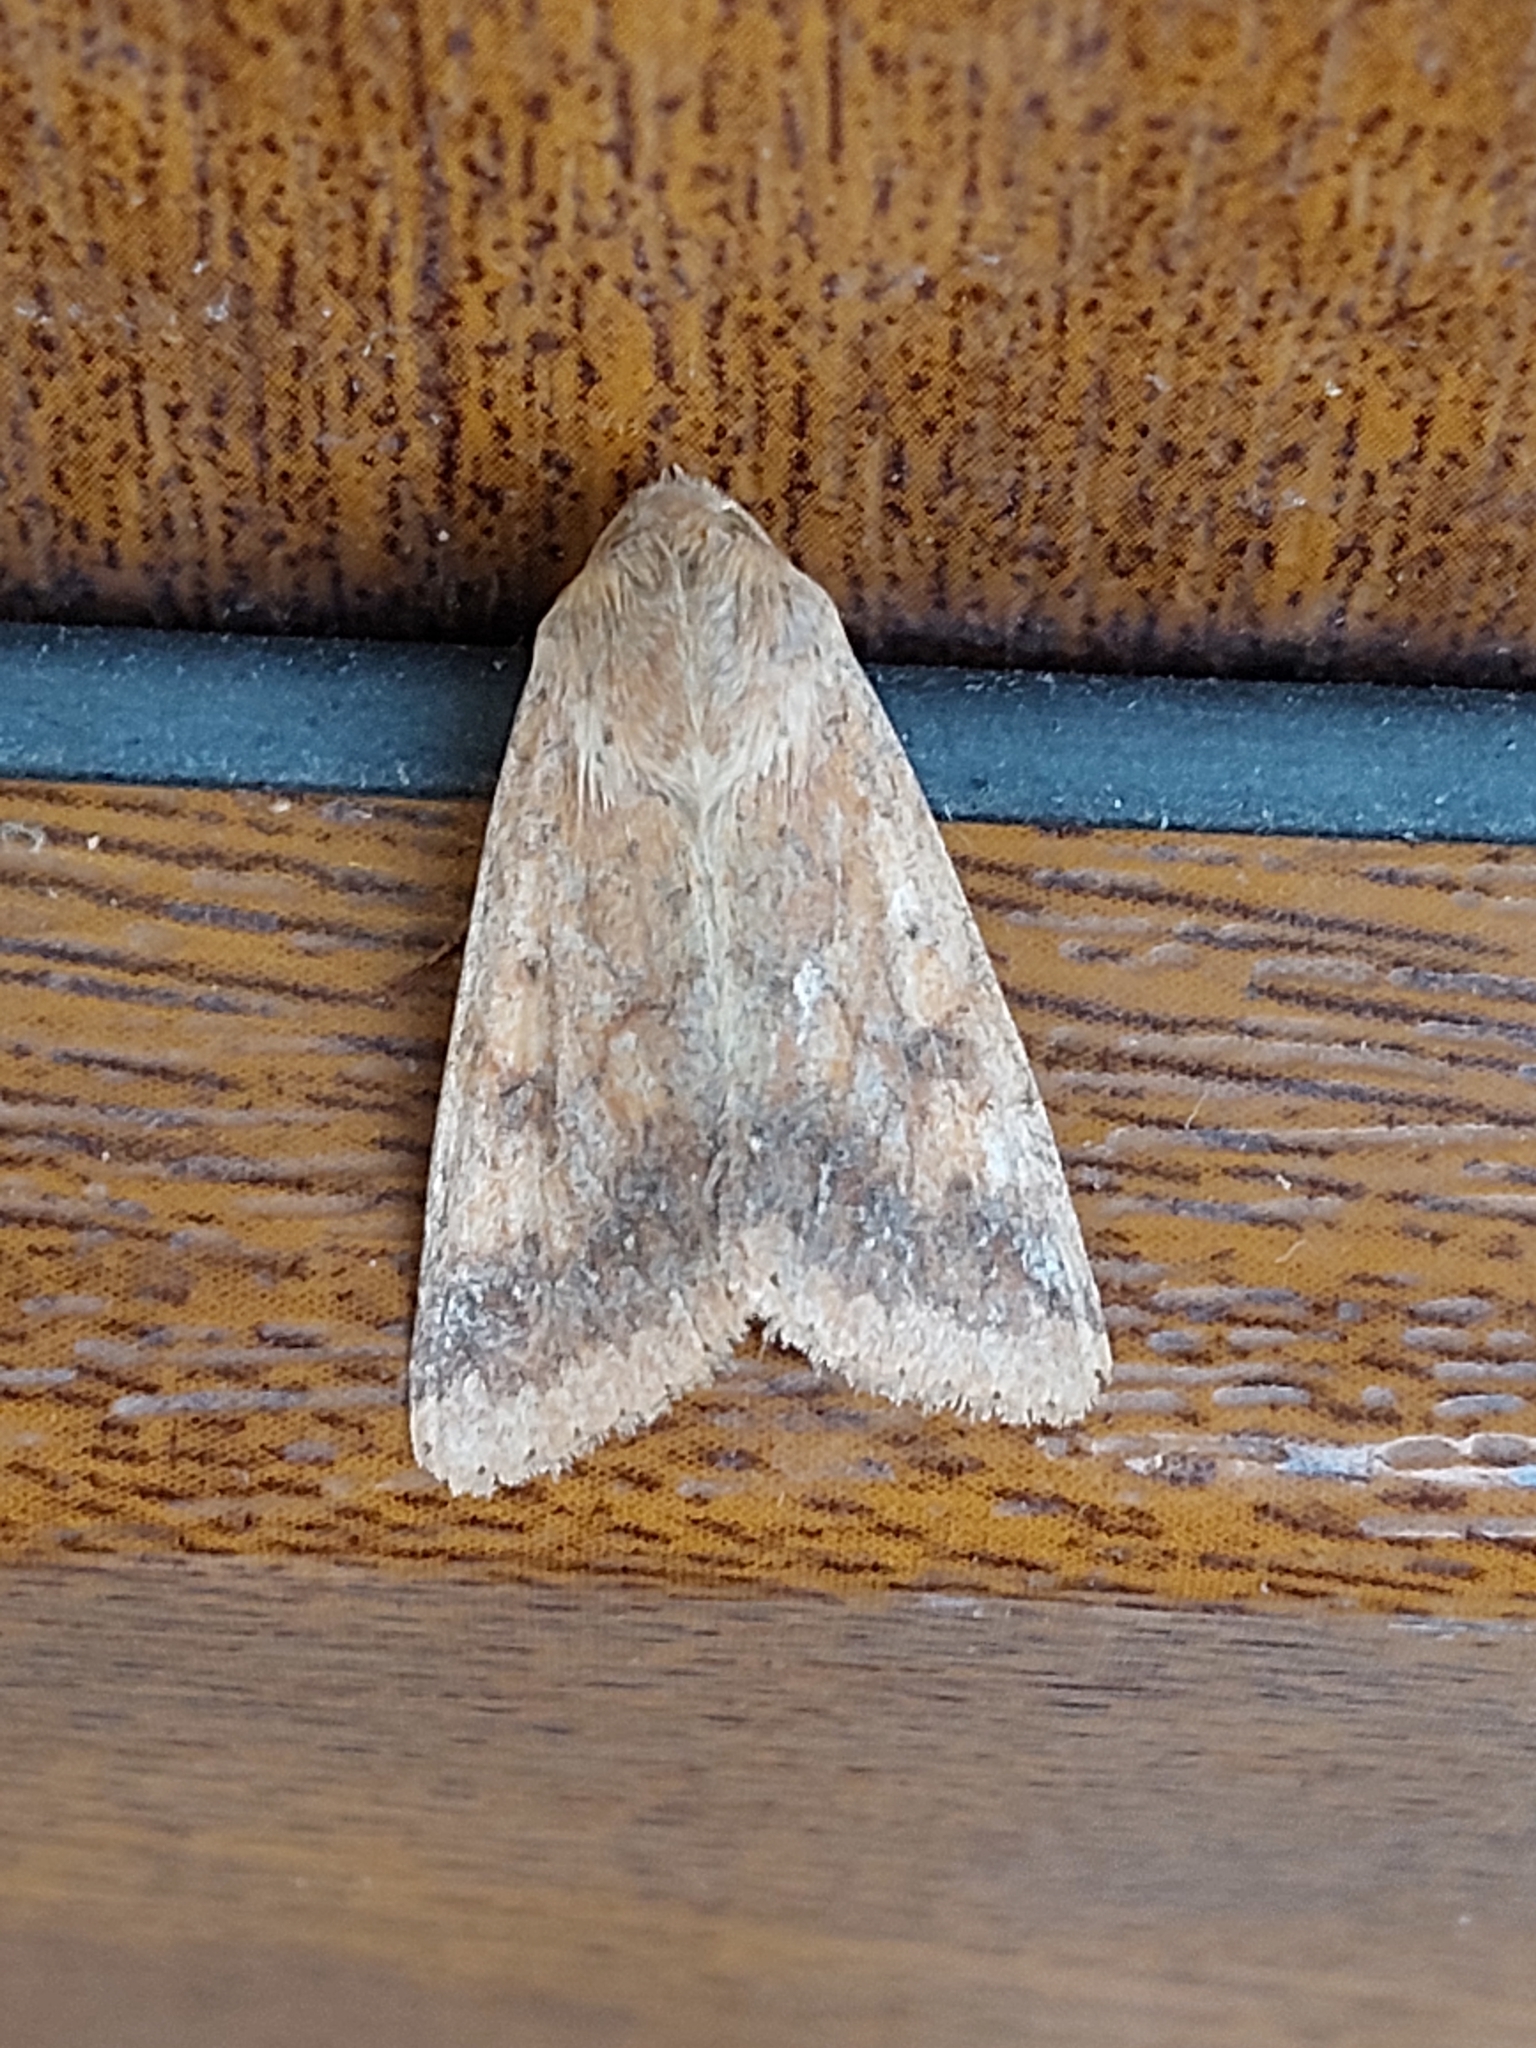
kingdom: Animalia
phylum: Arthropoda
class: Insecta
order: Lepidoptera
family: Noctuidae
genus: Helicoverpa
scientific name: Helicoverpa armigera
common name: Cotton bollworm
